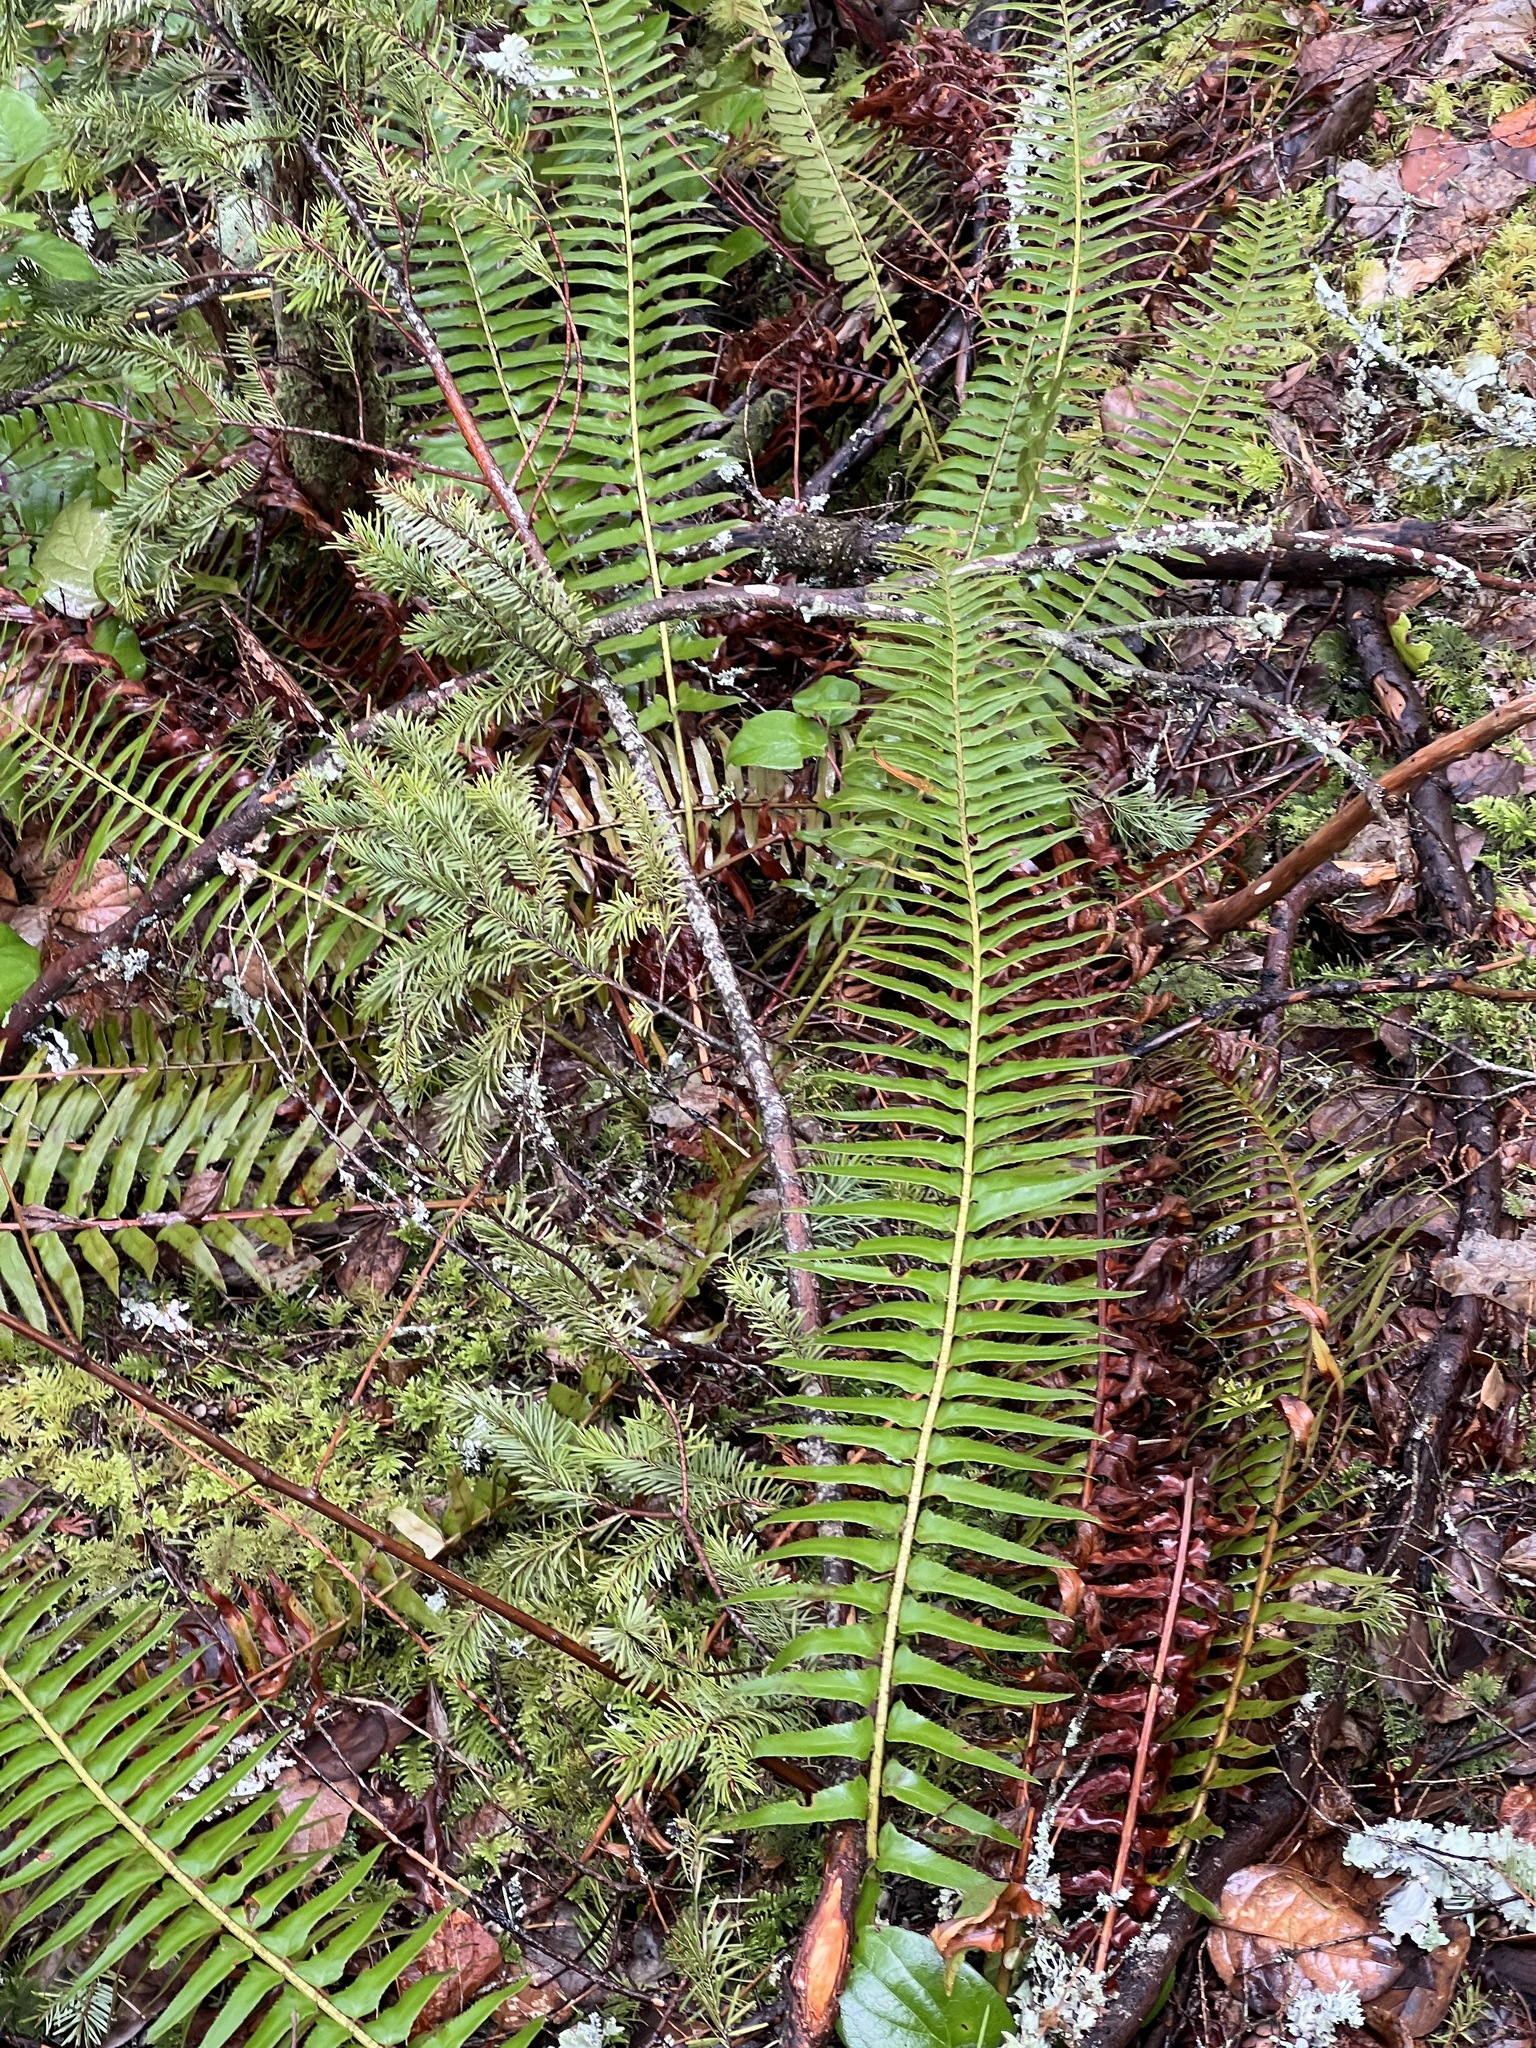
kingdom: Plantae
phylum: Tracheophyta
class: Polypodiopsida
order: Polypodiales
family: Dryopteridaceae
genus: Polystichum
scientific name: Polystichum munitum
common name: Western sword-fern
